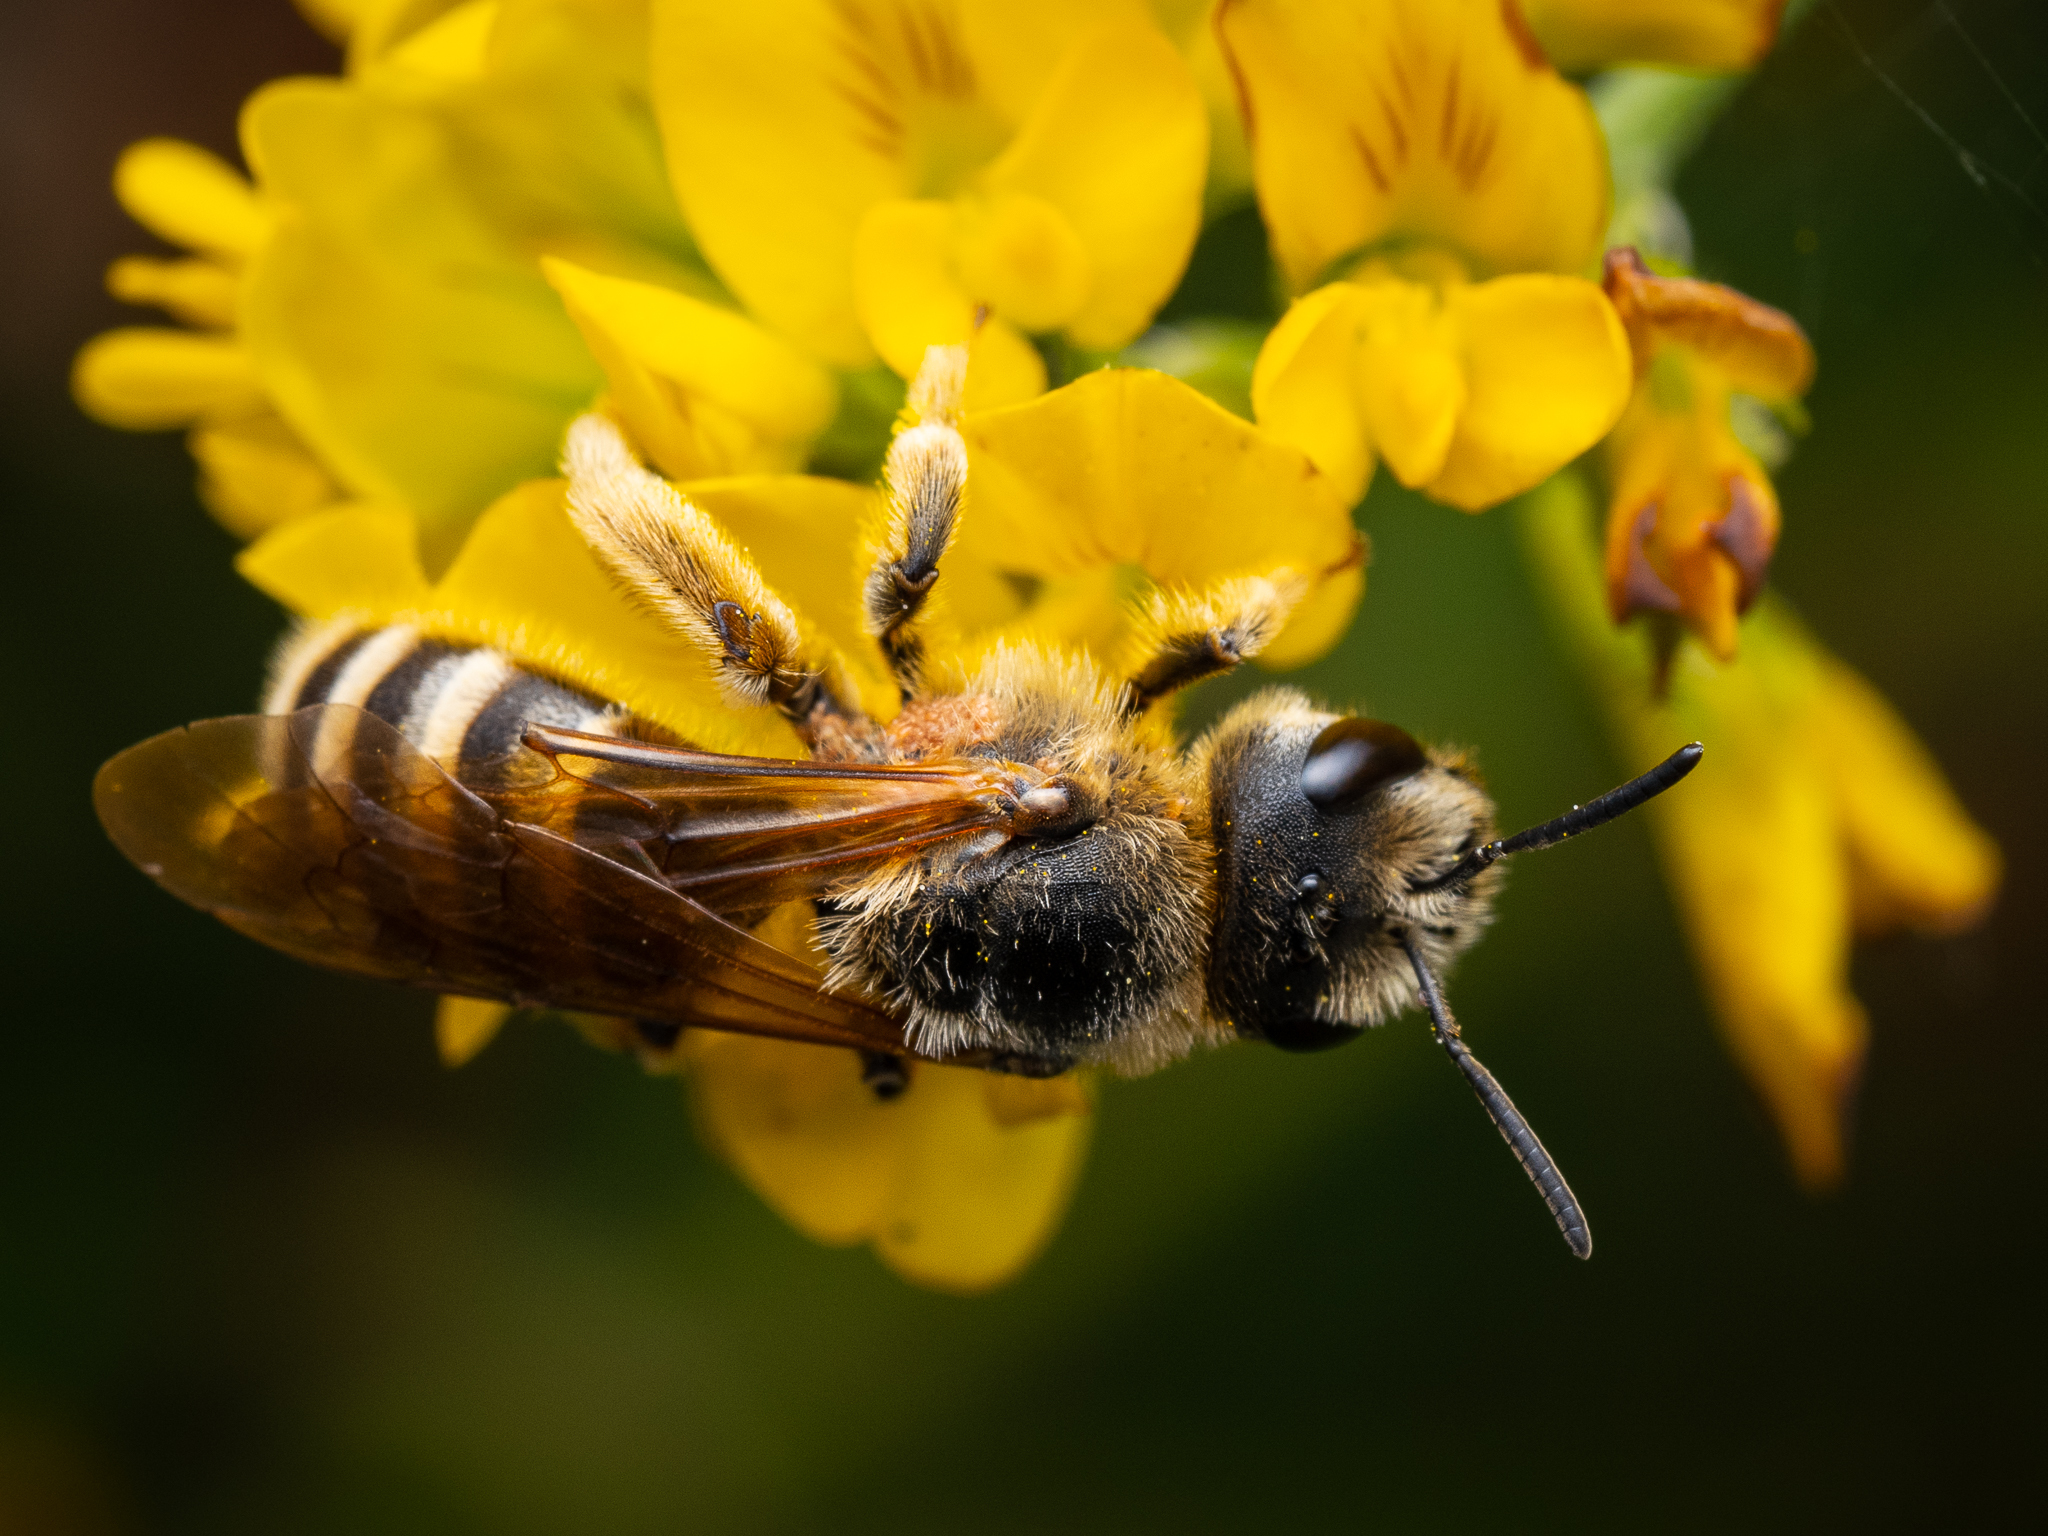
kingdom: Animalia
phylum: Arthropoda
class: Insecta
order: Hymenoptera
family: Halictidae
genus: Halictus
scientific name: Halictus scabiosae
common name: Great banded furrow bee
